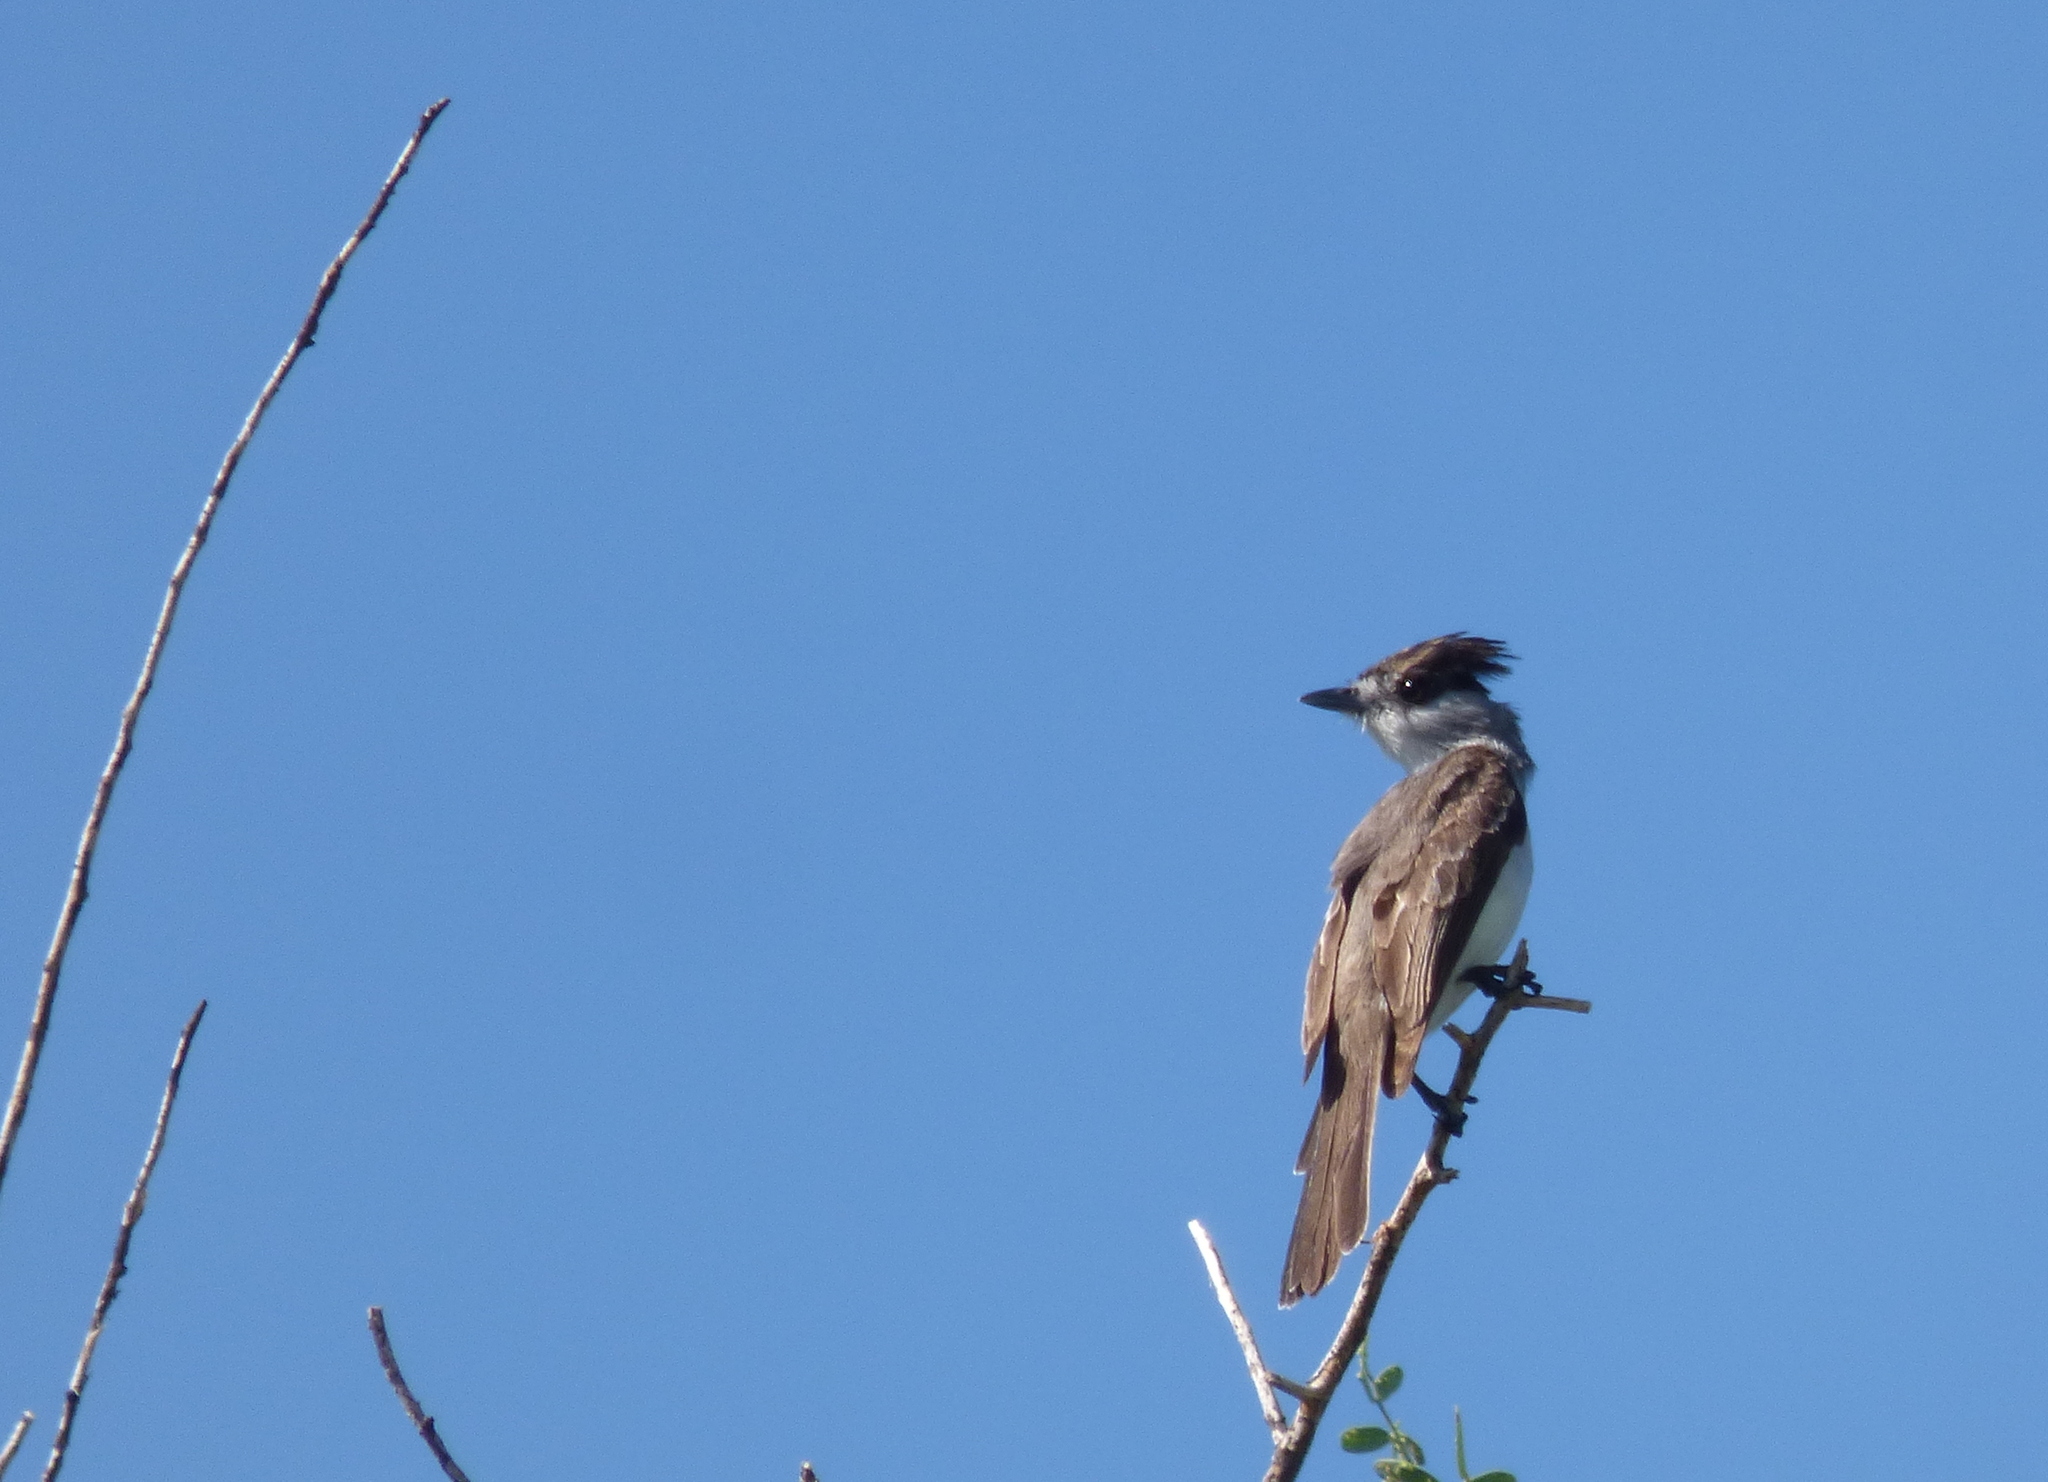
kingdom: Animalia
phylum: Chordata
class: Aves
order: Passeriformes
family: Cotingidae
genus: Xenopsaris
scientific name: Xenopsaris albinucha
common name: White-naped xenopsaris
